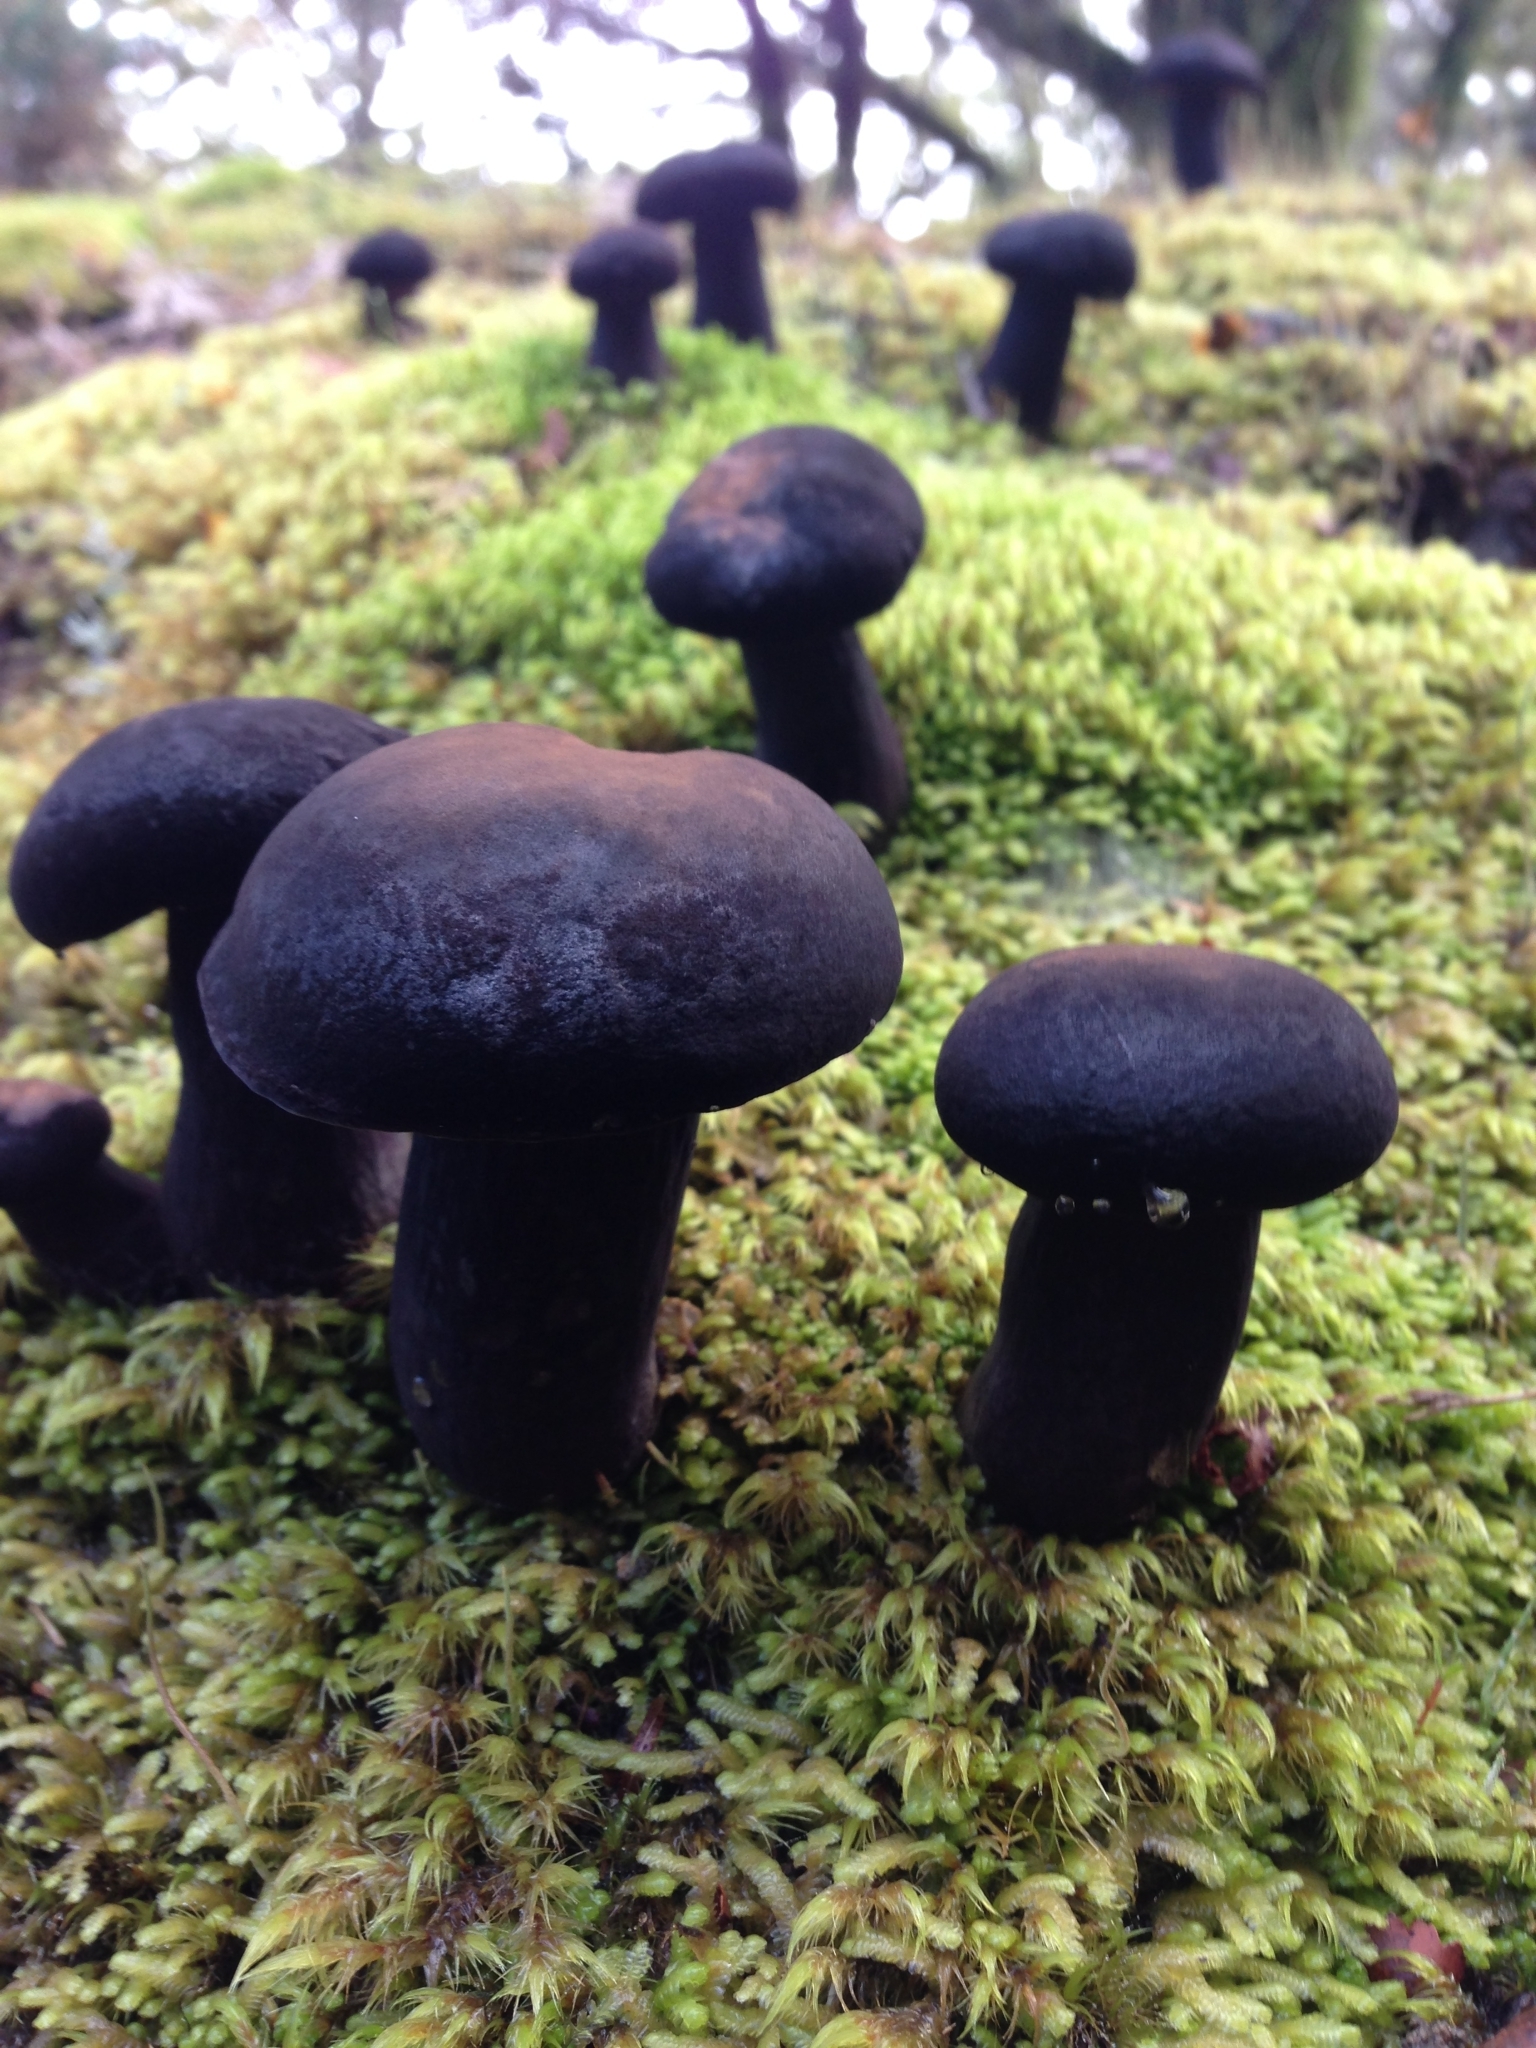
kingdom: Fungi
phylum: Basidiomycota
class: Agaricomycetes
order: Boletales
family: Boletaceae
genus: Porphyrellus
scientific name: Porphyrellus formosus
